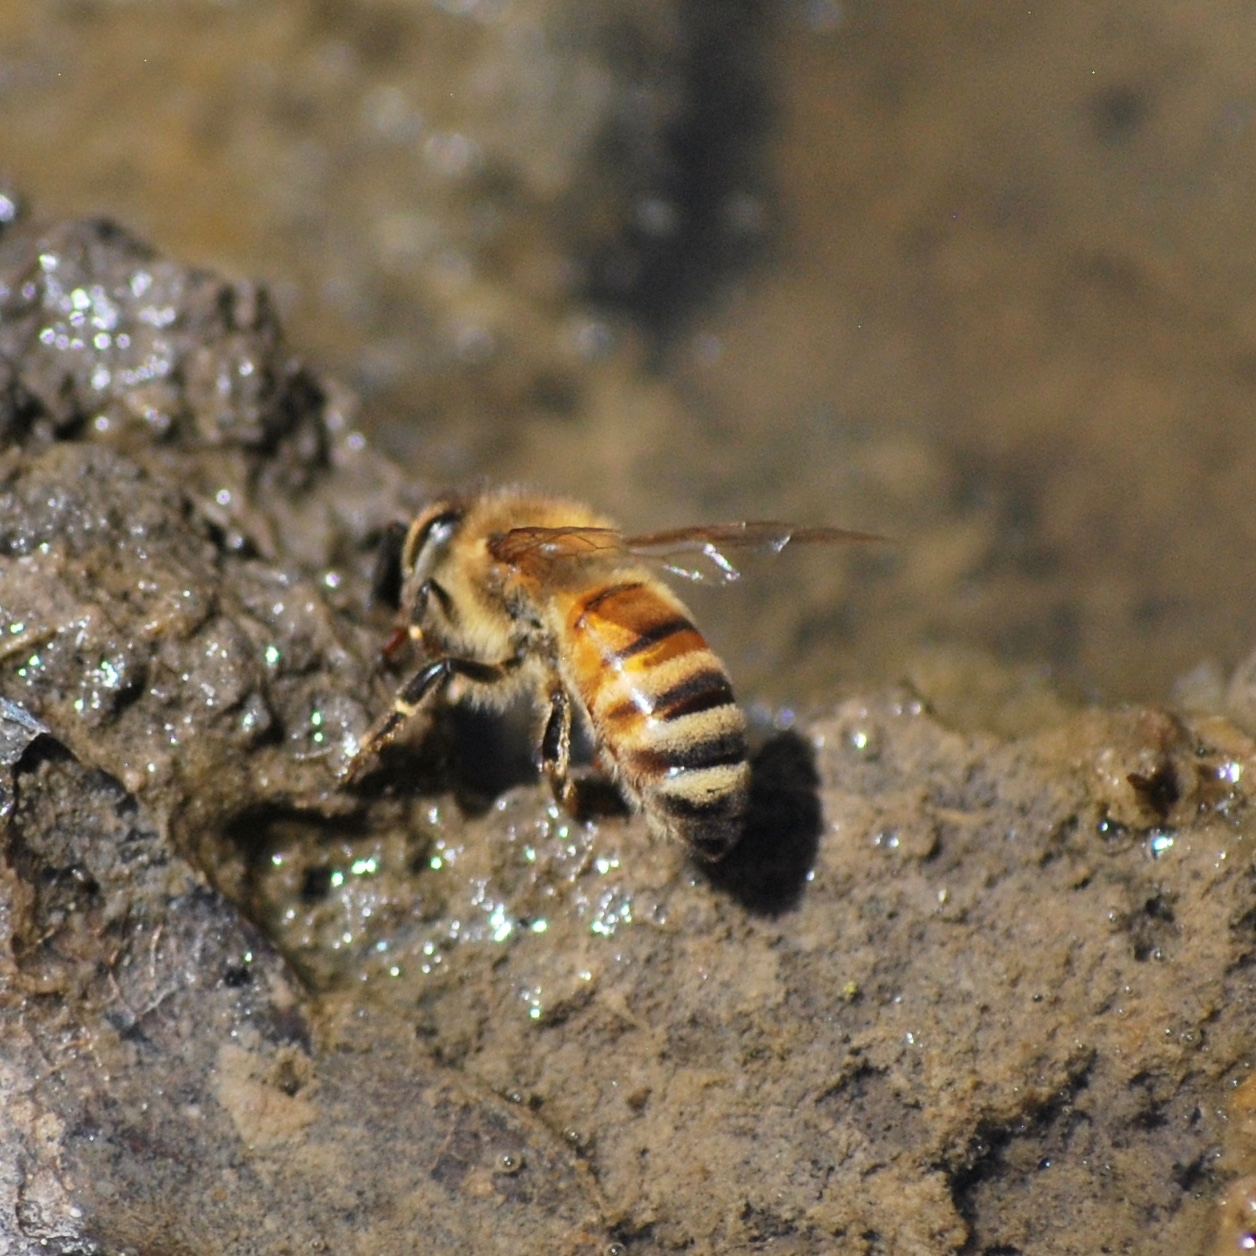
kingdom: Animalia
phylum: Arthropoda
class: Insecta
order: Hymenoptera
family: Apidae
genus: Apis
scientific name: Apis mellifera
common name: Honey bee
